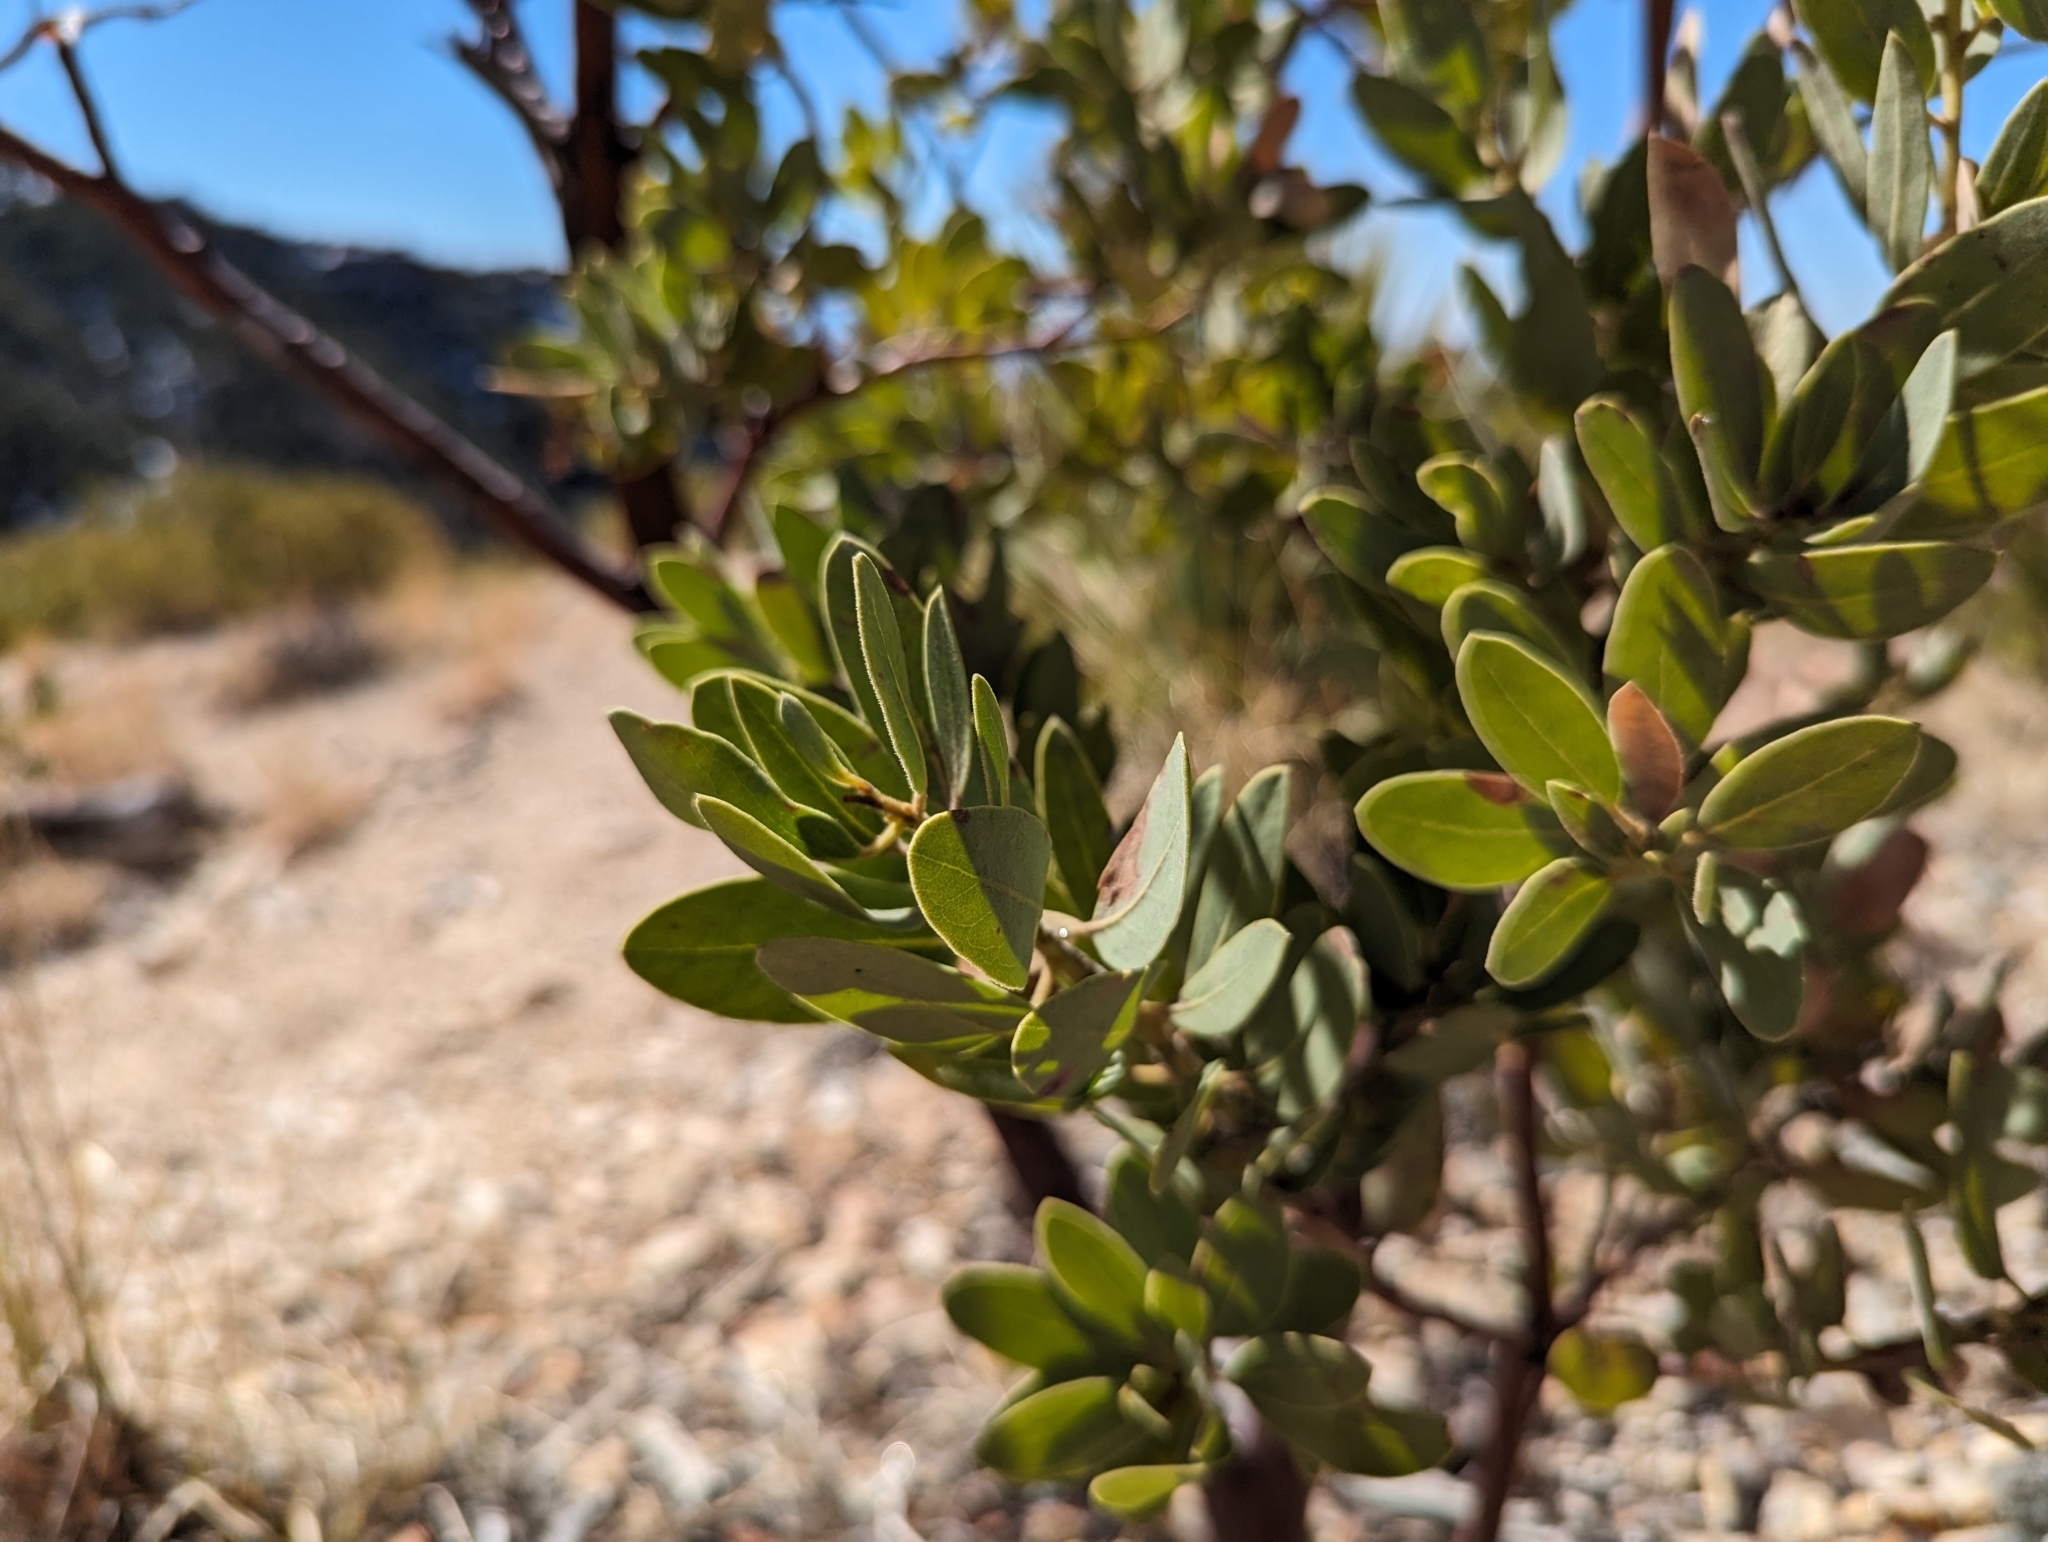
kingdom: Plantae
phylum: Tracheophyta
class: Magnoliopsida
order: Ericales
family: Ericaceae
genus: Arctostaphylos
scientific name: Arctostaphylos pringlei
